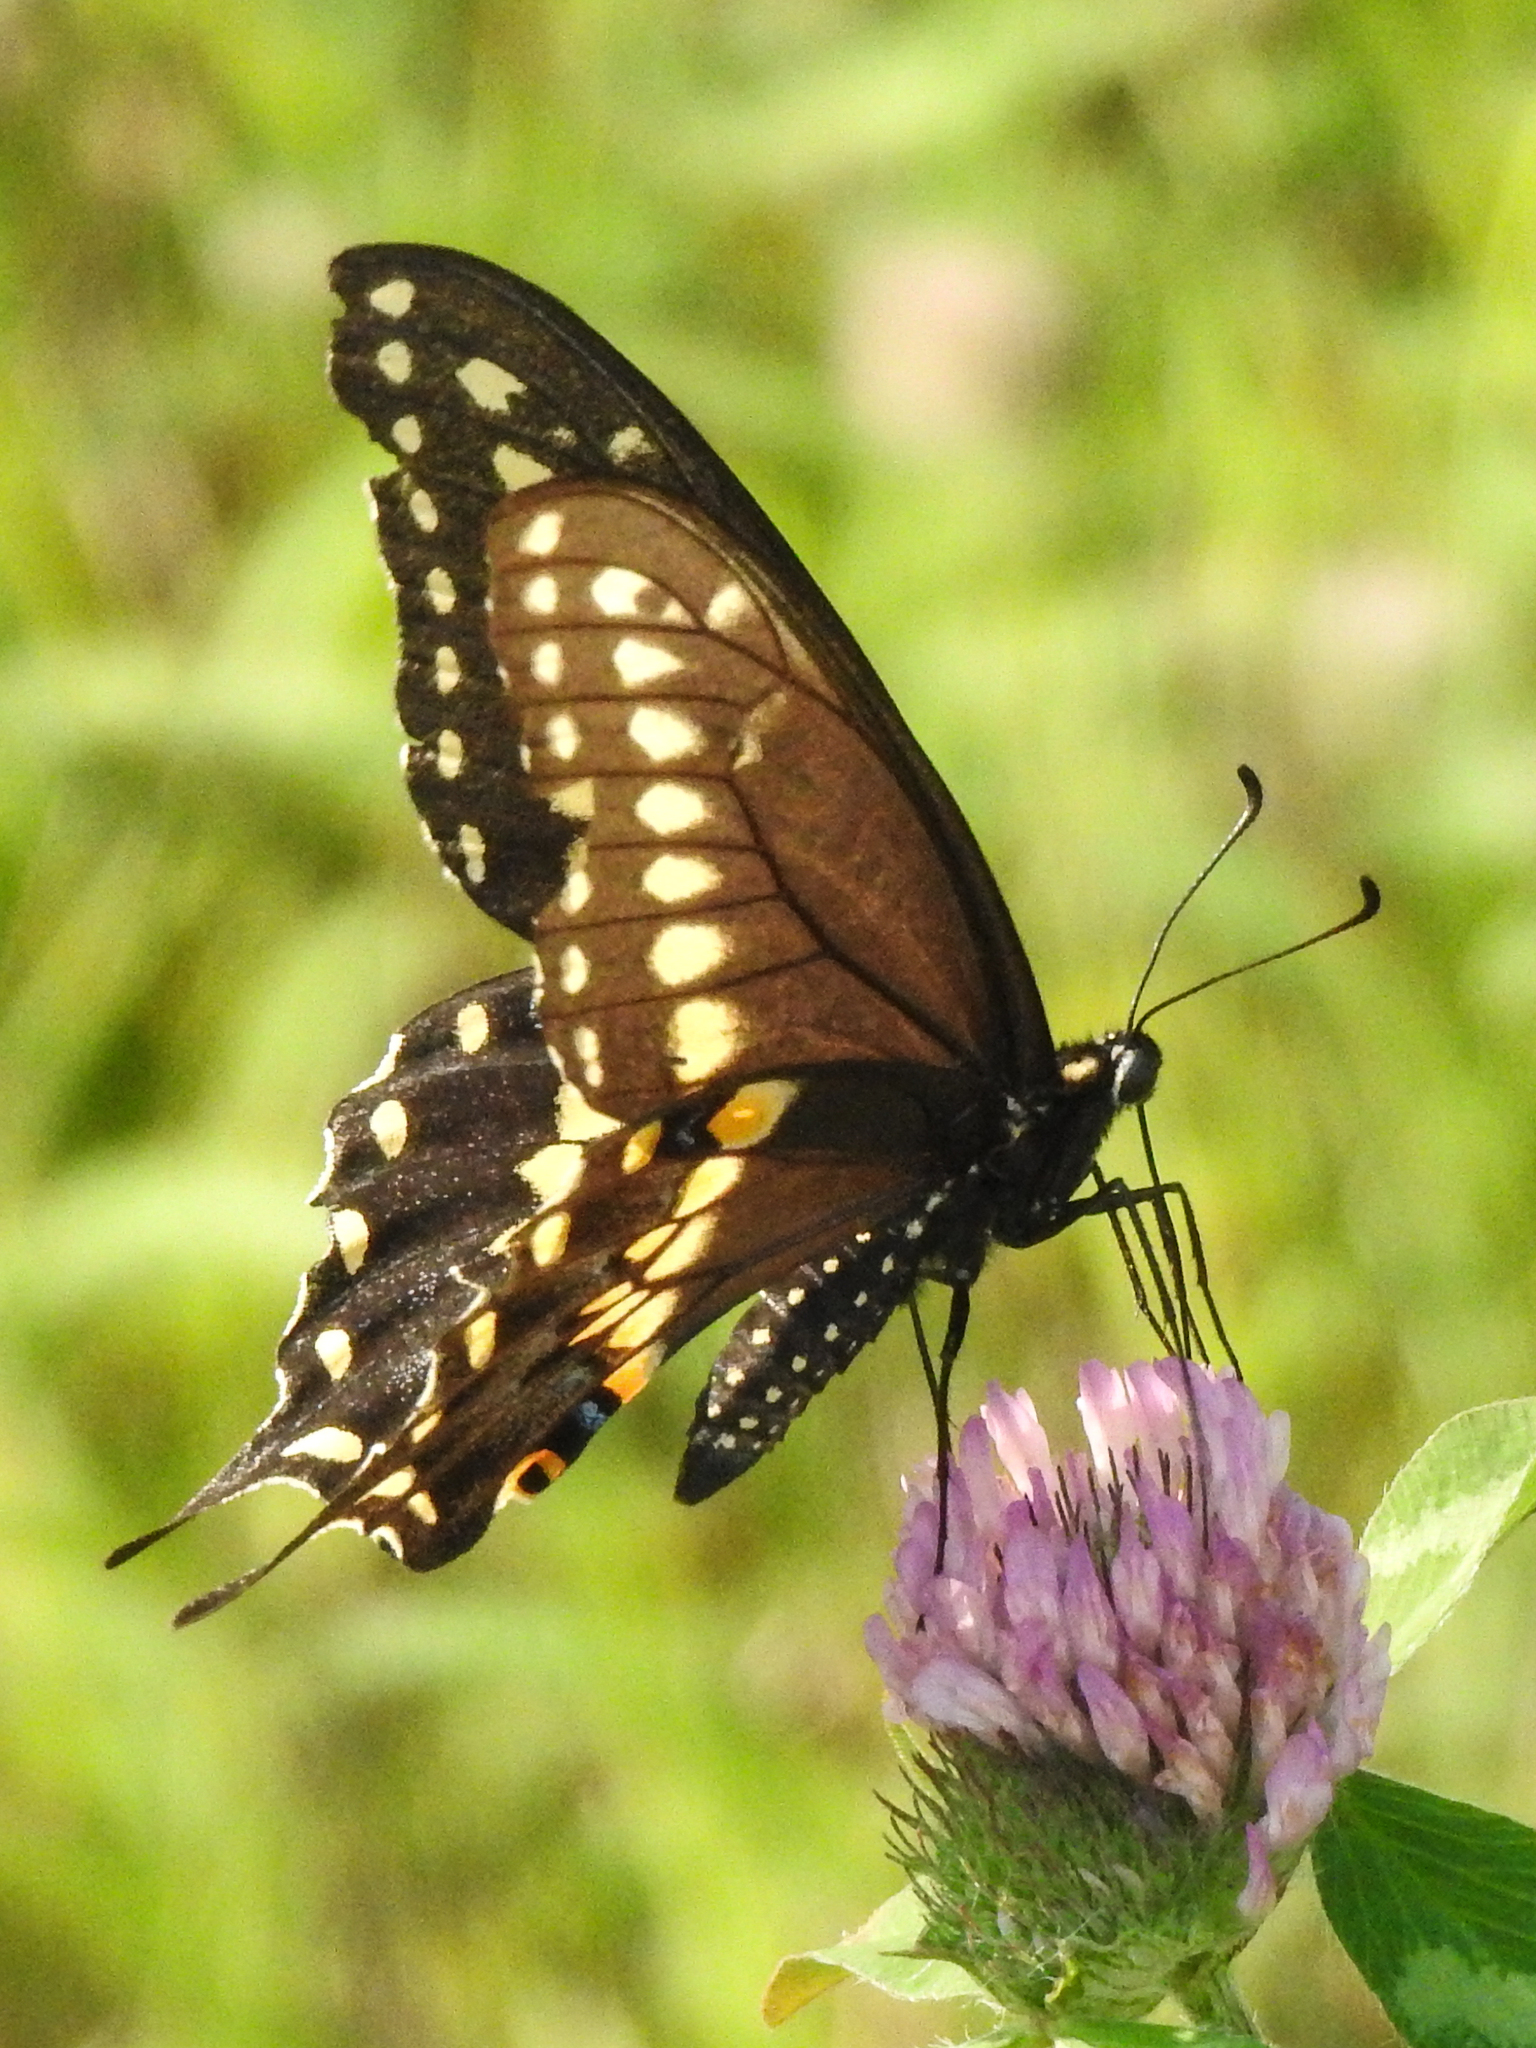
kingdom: Animalia
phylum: Arthropoda
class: Insecta
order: Lepidoptera
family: Papilionidae
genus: Papilio
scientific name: Papilio polyxenes
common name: Black swallowtail
